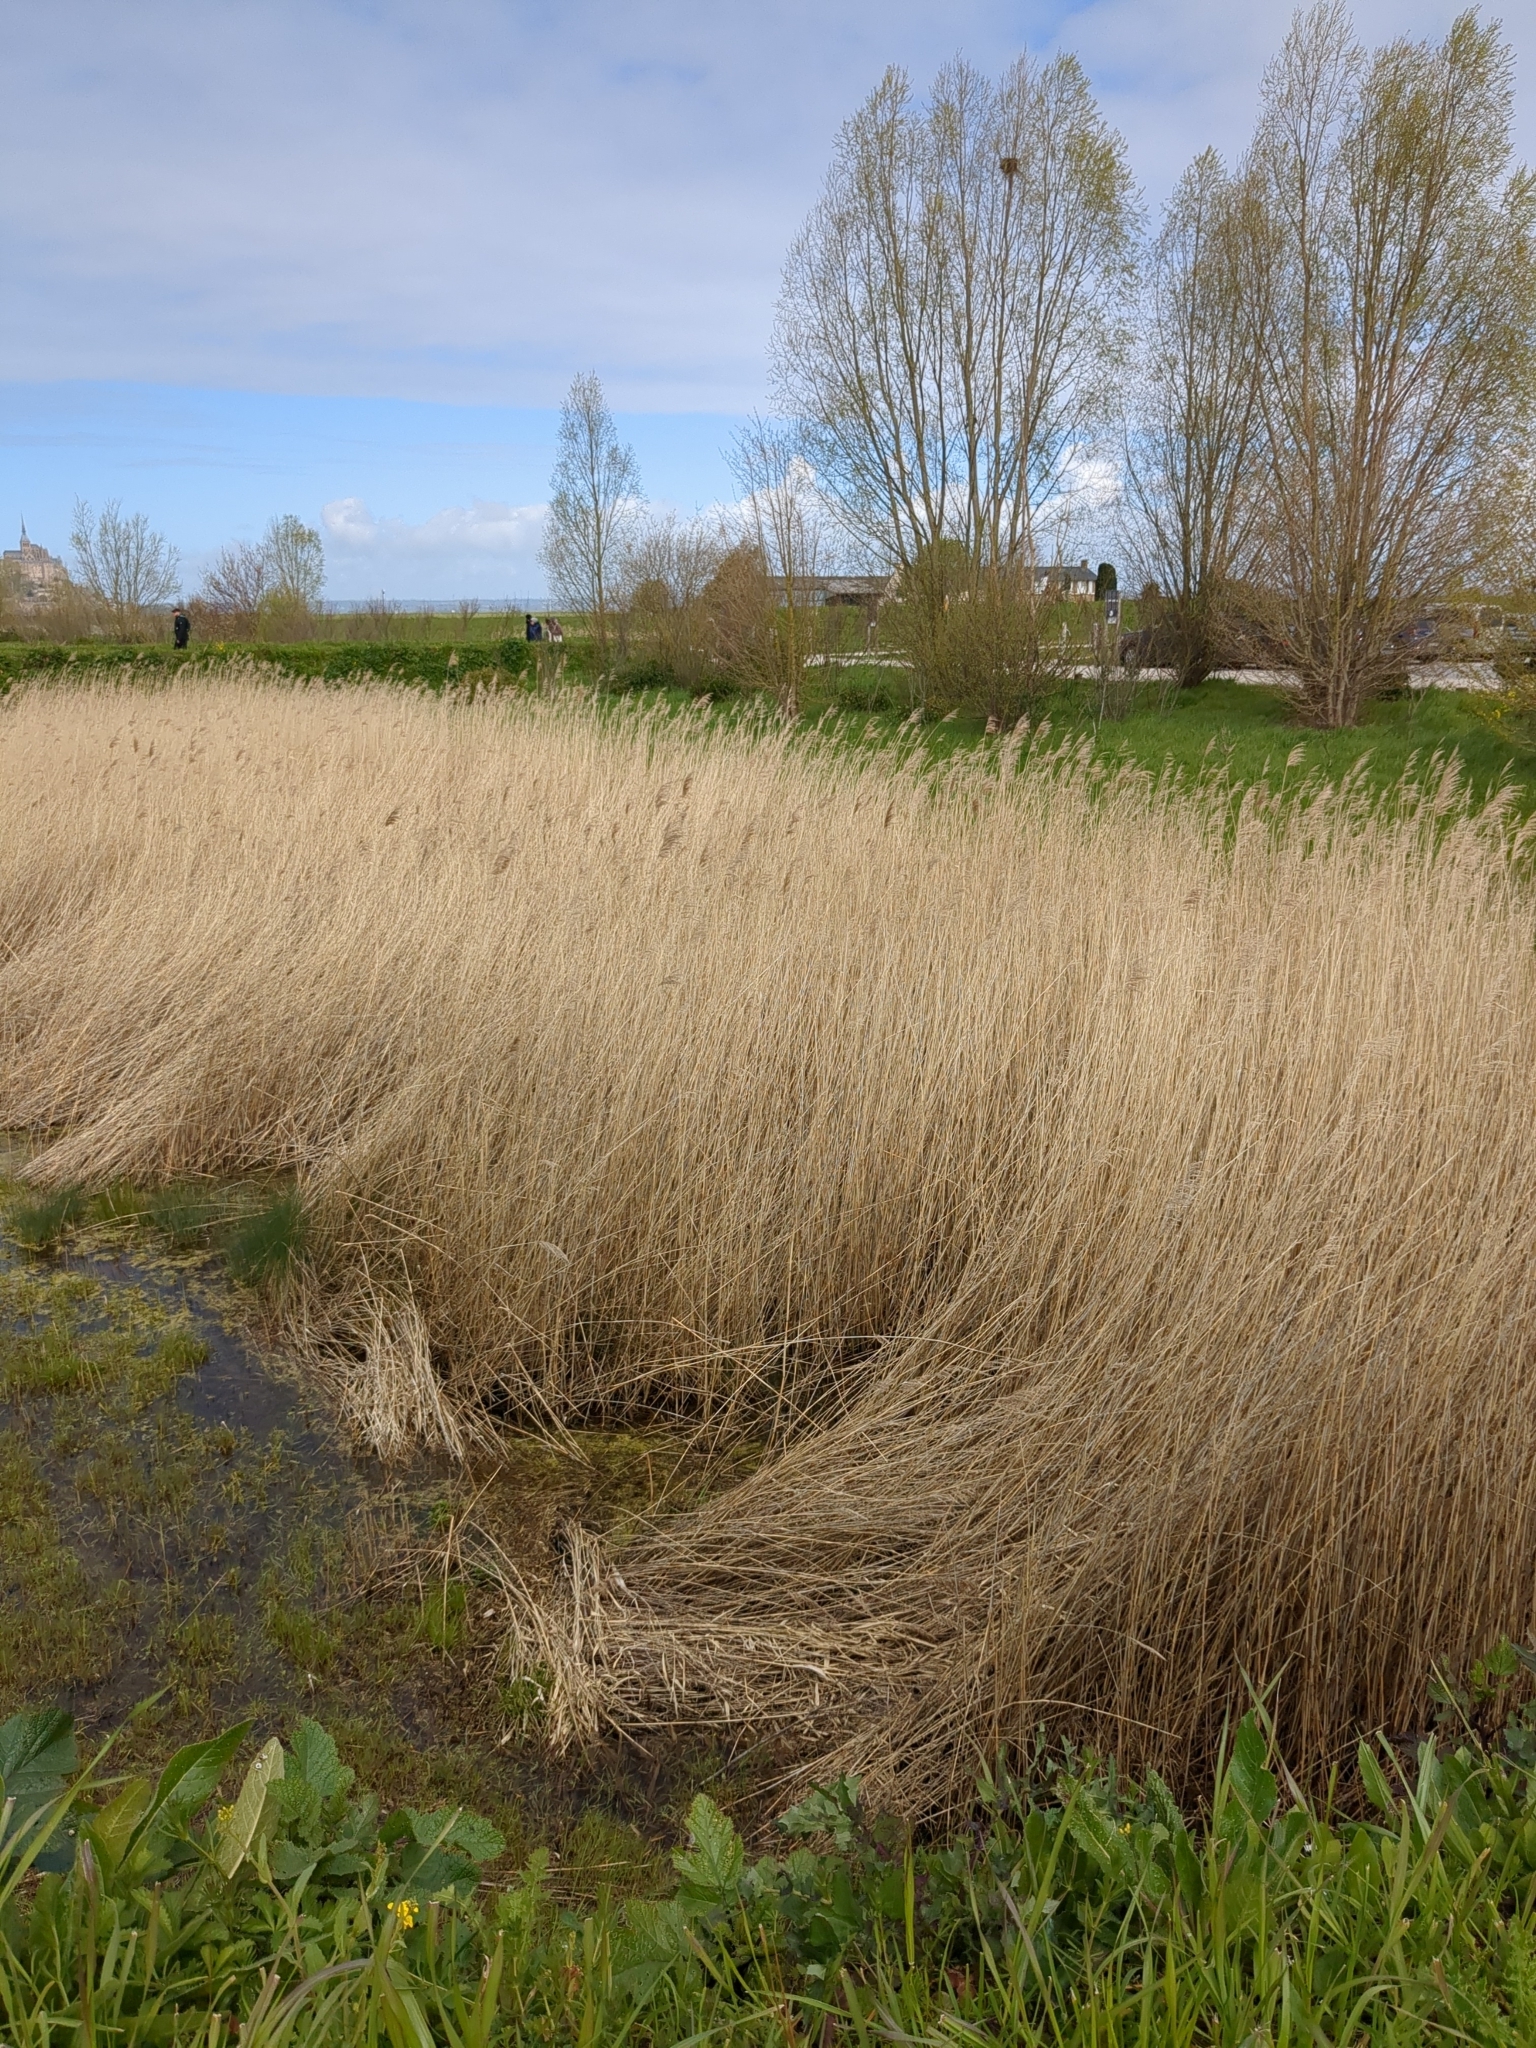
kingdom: Plantae
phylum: Tracheophyta
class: Liliopsida
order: Poales
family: Poaceae
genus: Phragmites
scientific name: Phragmites australis
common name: Common reed
